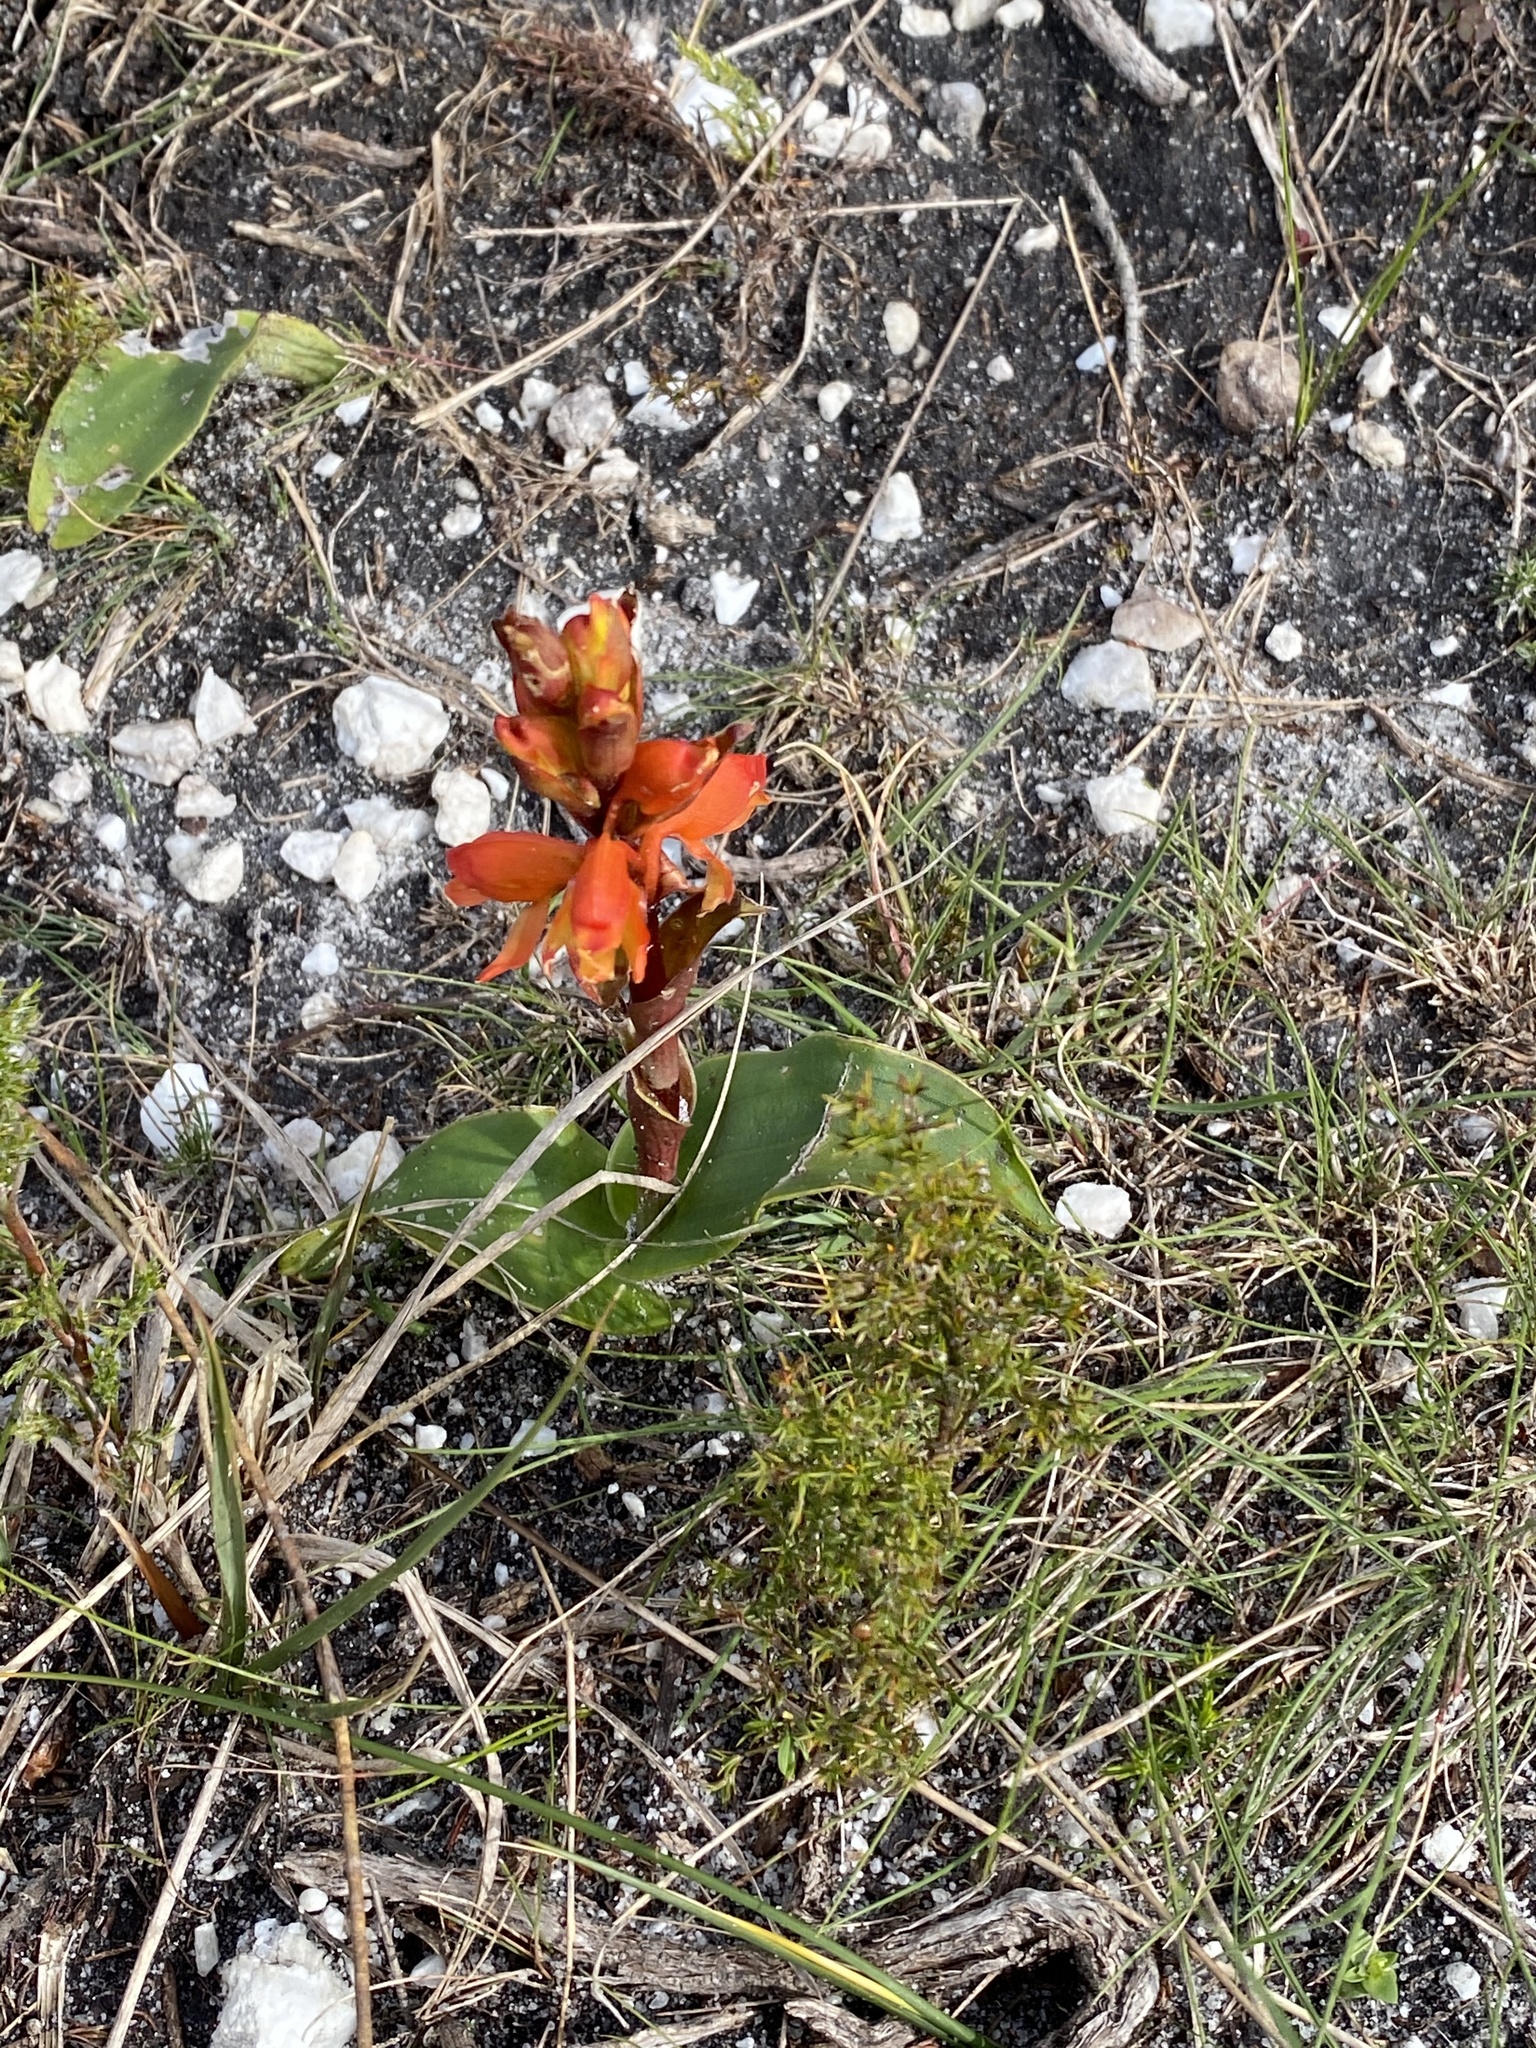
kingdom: Plantae
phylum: Tracheophyta
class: Liliopsida
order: Asparagales
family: Orchidaceae
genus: Satyrium
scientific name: Satyrium coriifolium
